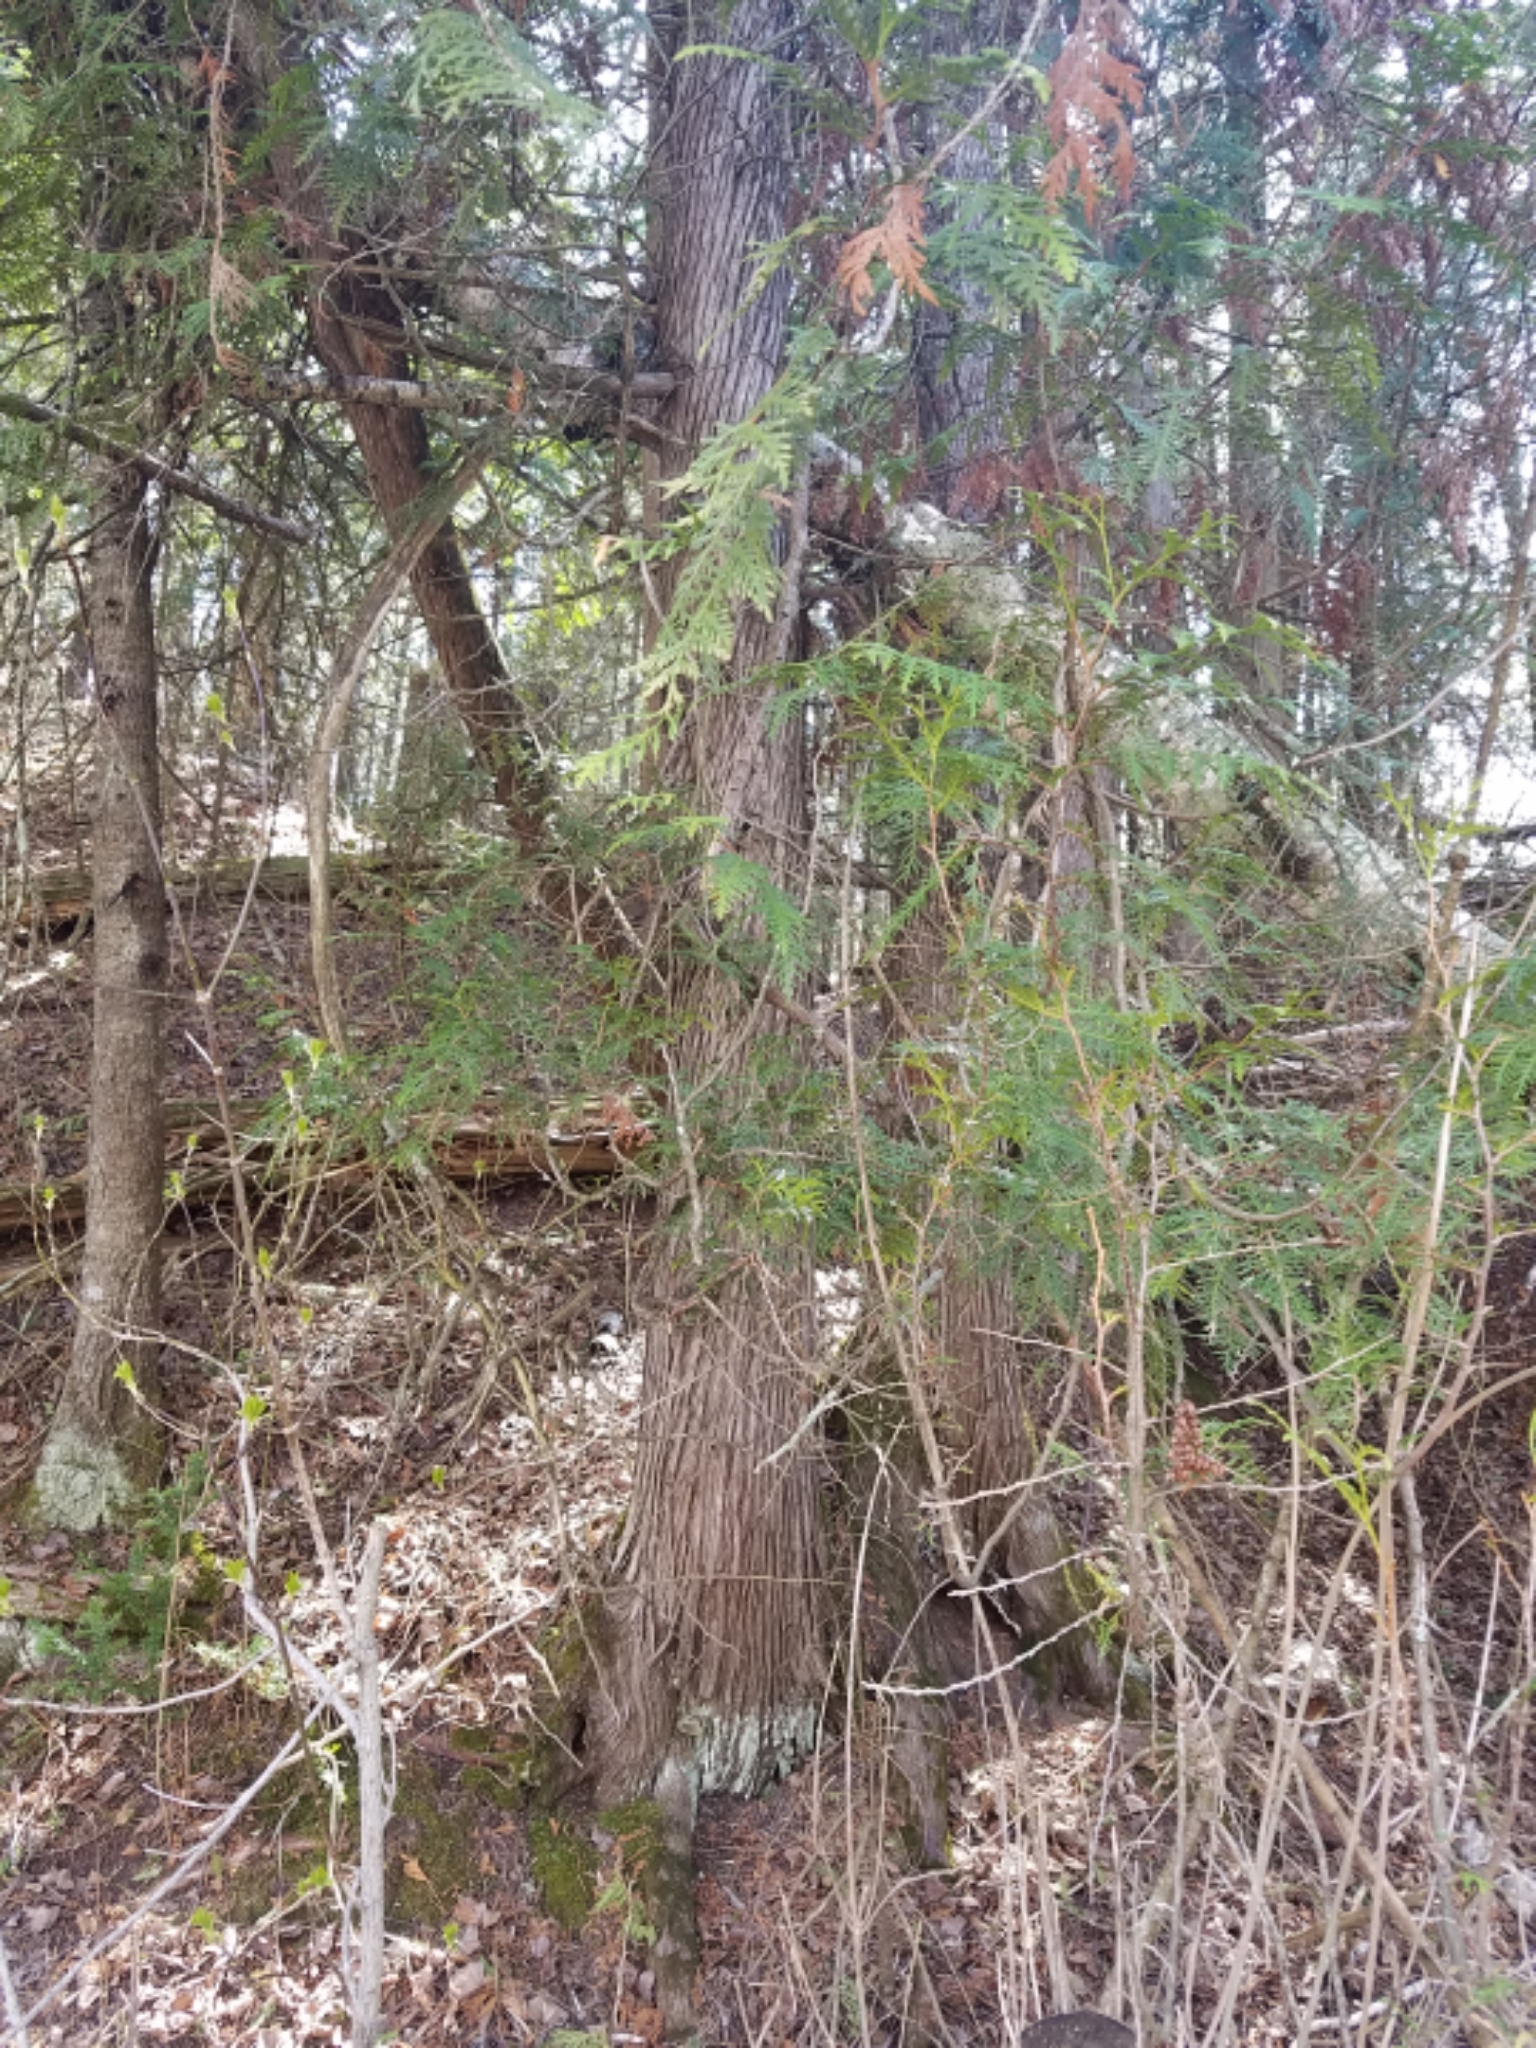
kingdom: Plantae
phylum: Tracheophyta
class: Pinopsida
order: Pinales
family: Cupressaceae
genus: Thuja
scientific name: Thuja occidentalis
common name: Northern white-cedar
